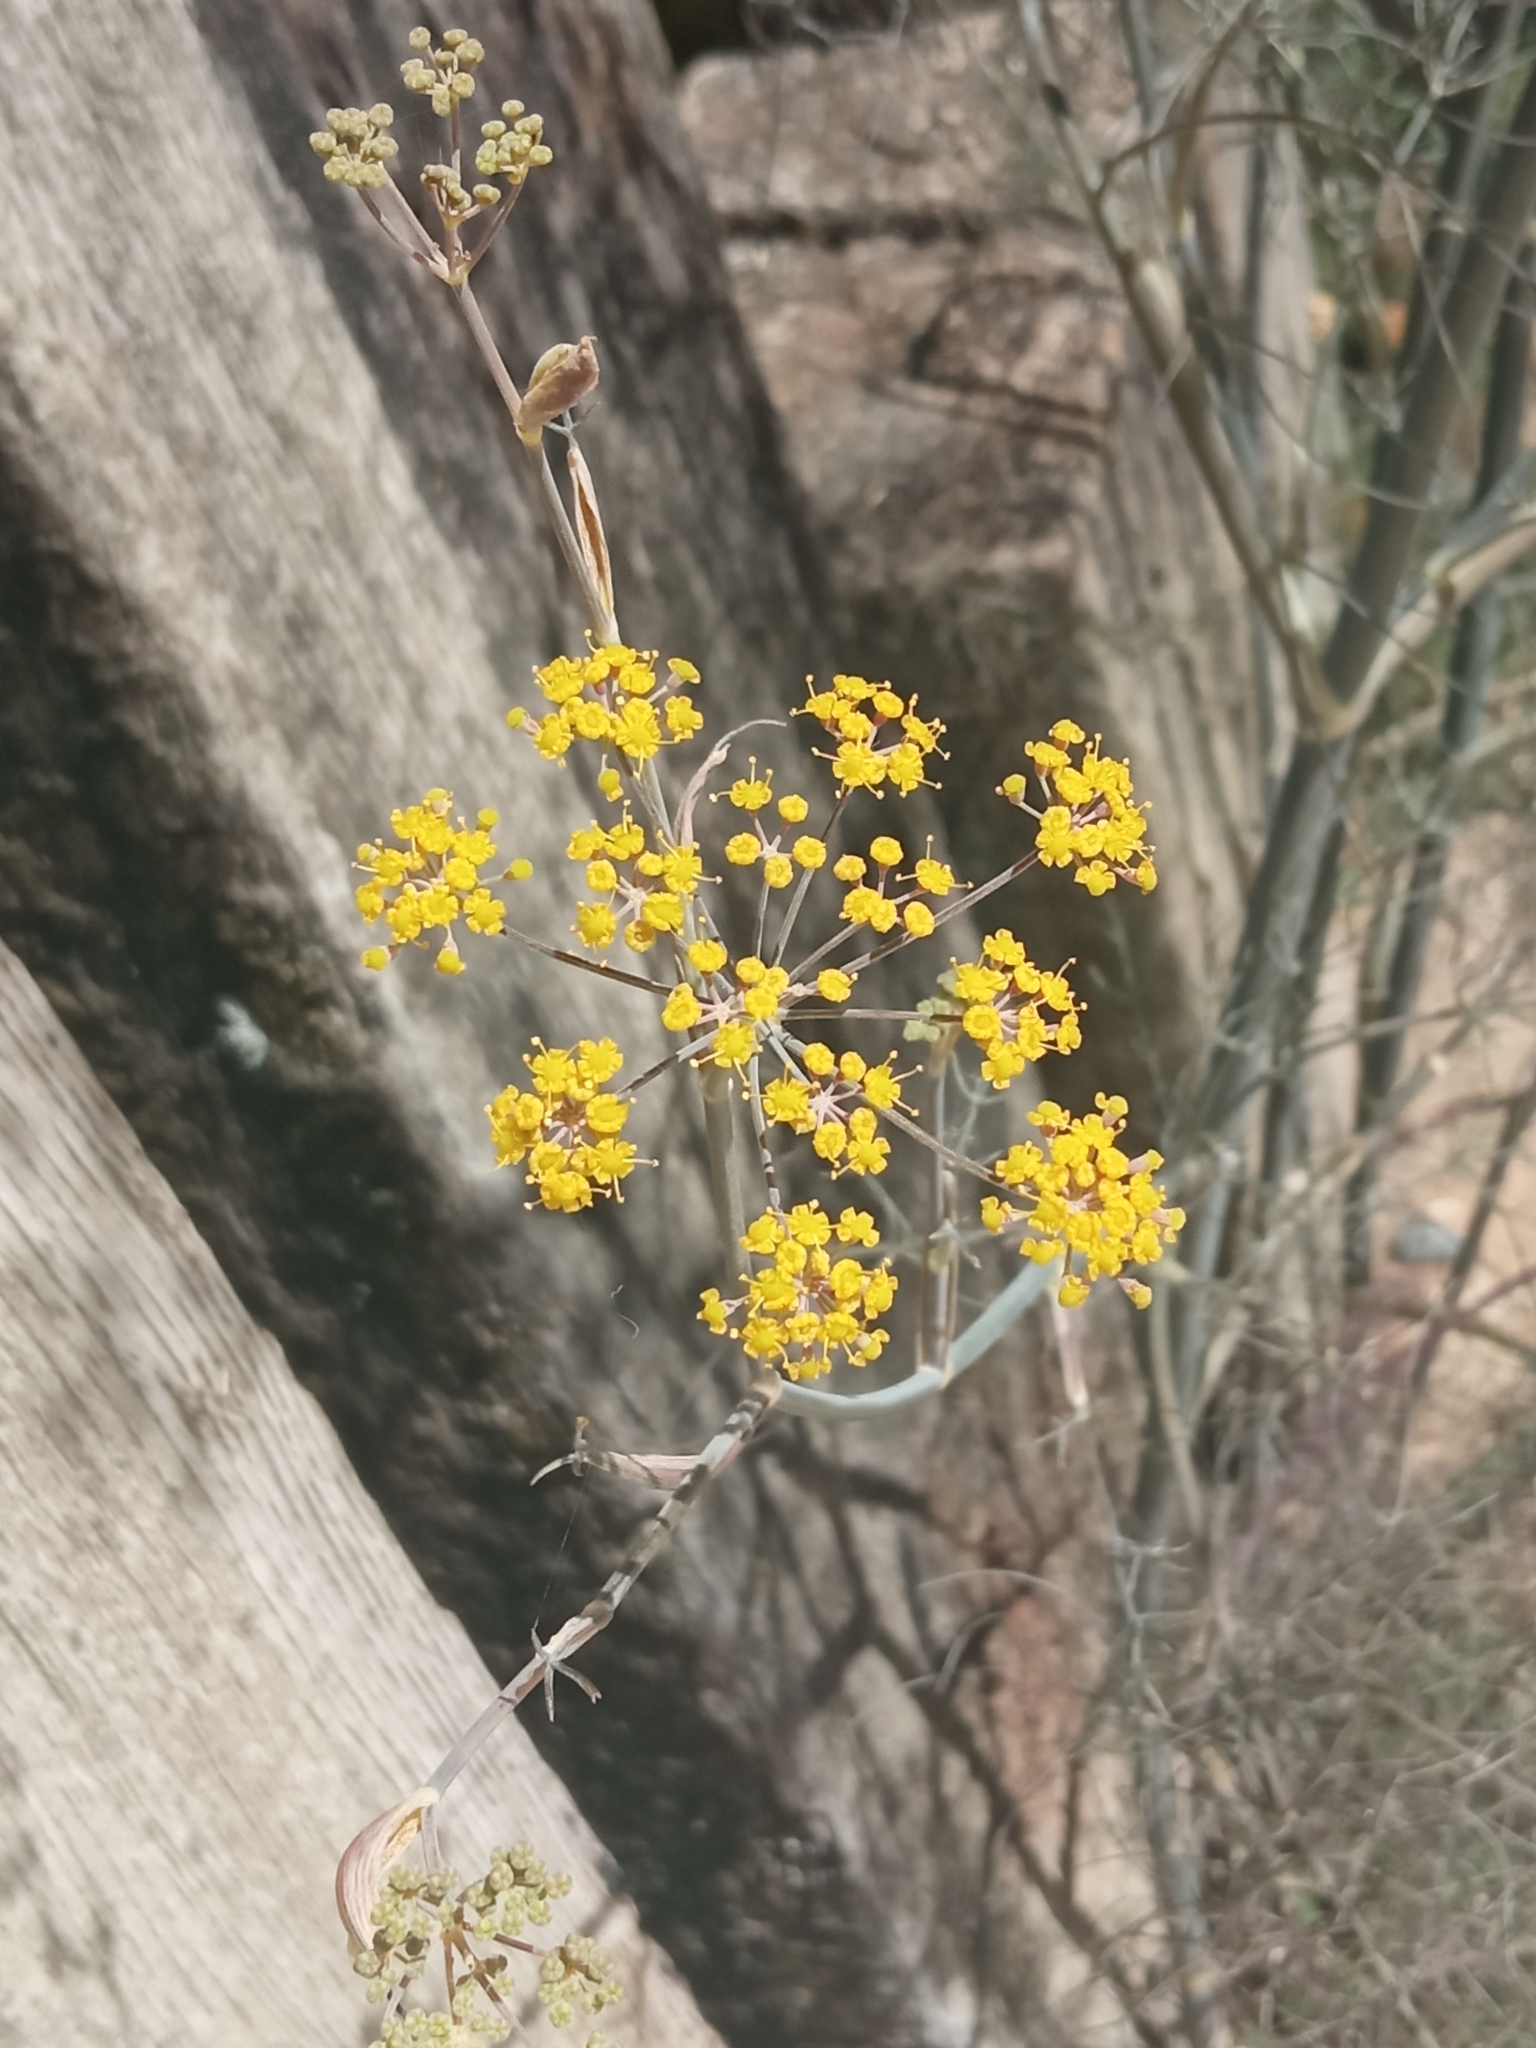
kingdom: Plantae
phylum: Tracheophyta
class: Magnoliopsida
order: Apiales
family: Apiaceae
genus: Foeniculum
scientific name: Foeniculum vulgare
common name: Fennel
